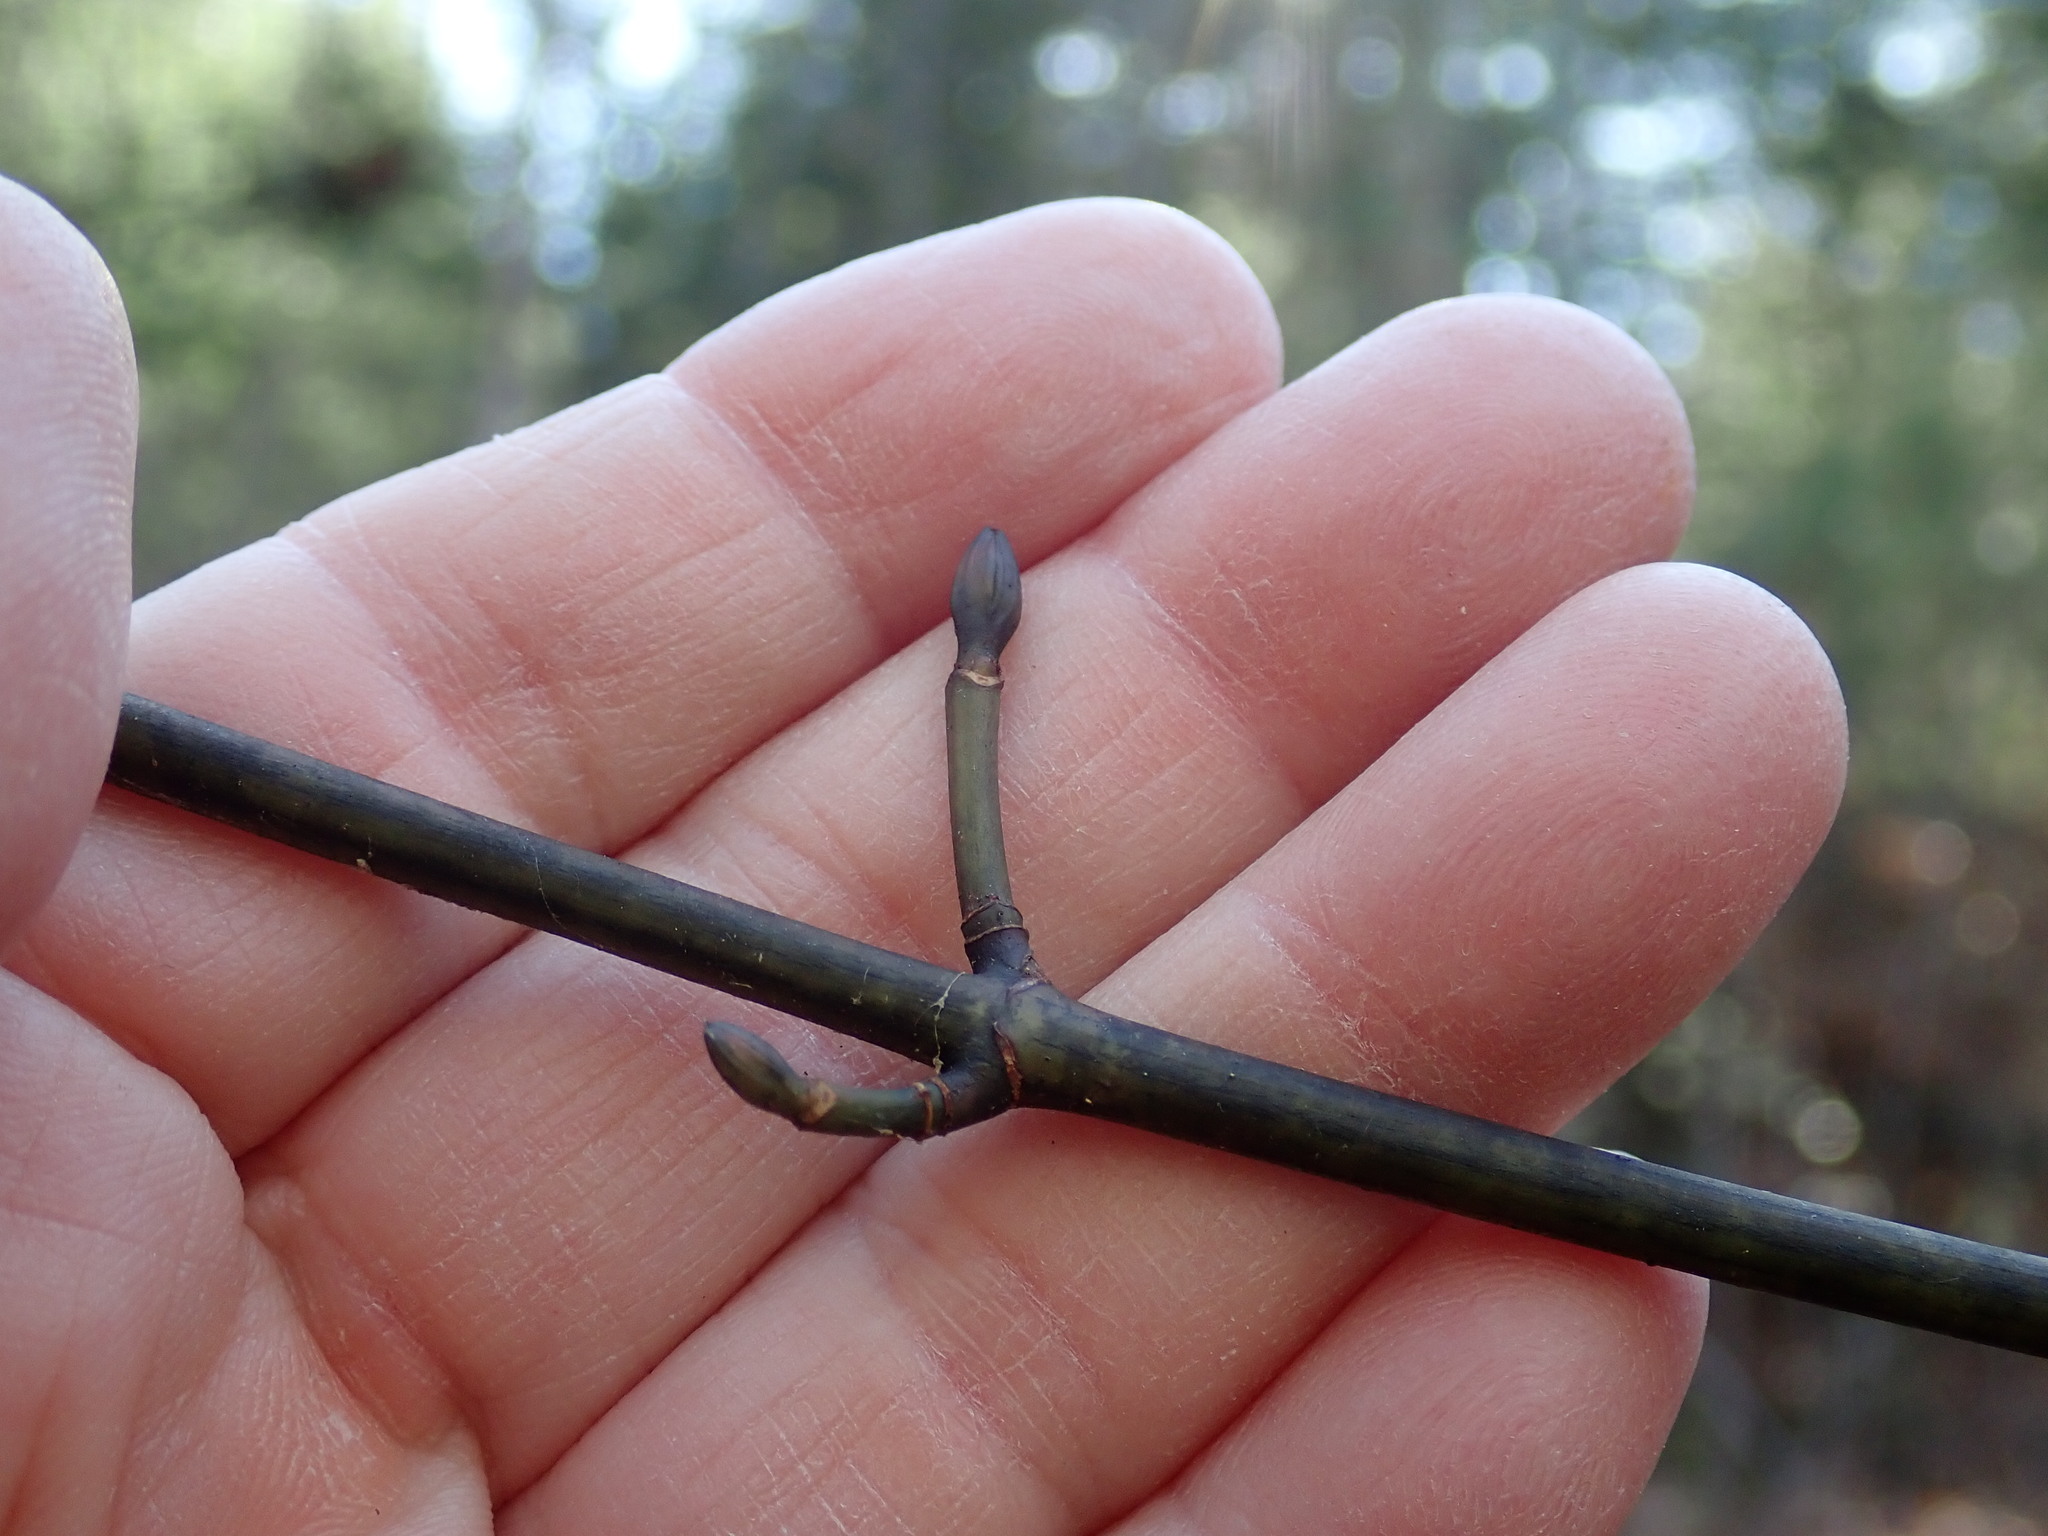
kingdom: Plantae
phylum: Tracheophyta
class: Magnoliopsida
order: Sapindales
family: Sapindaceae
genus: Acer
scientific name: Acer pensylvanicum
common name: Moosewood
